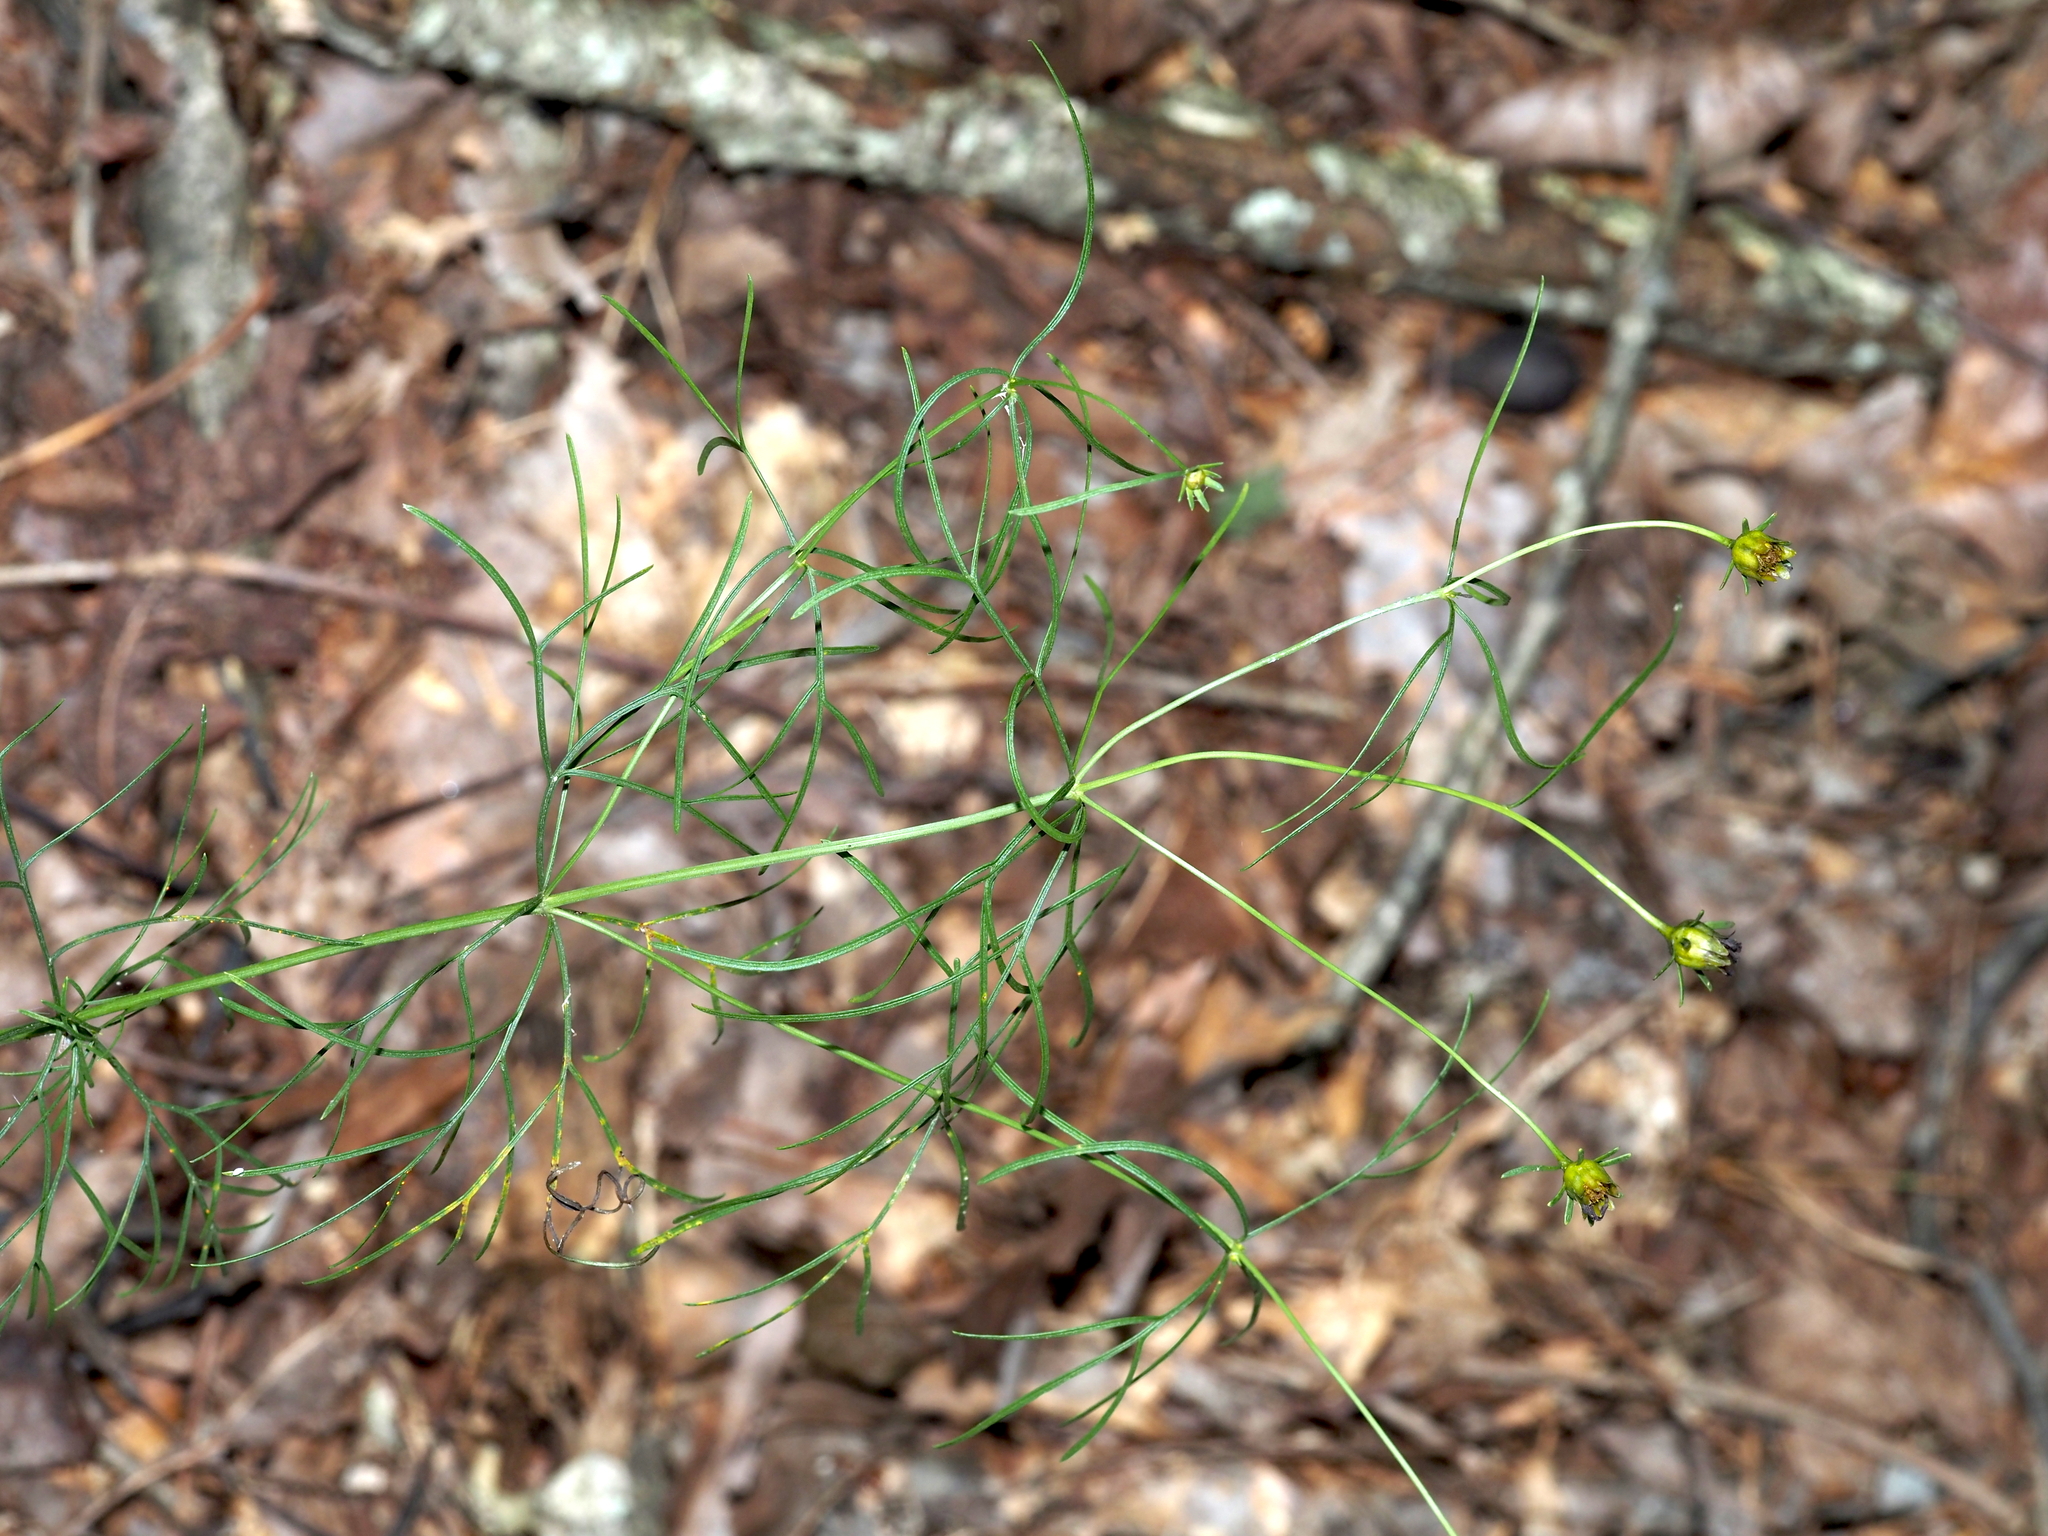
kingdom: Plantae
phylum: Tracheophyta
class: Magnoliopsida
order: Asterales
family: Asteraceae
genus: Coreopsis
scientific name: Coreopsis verticillata
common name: Whorled tickseed
